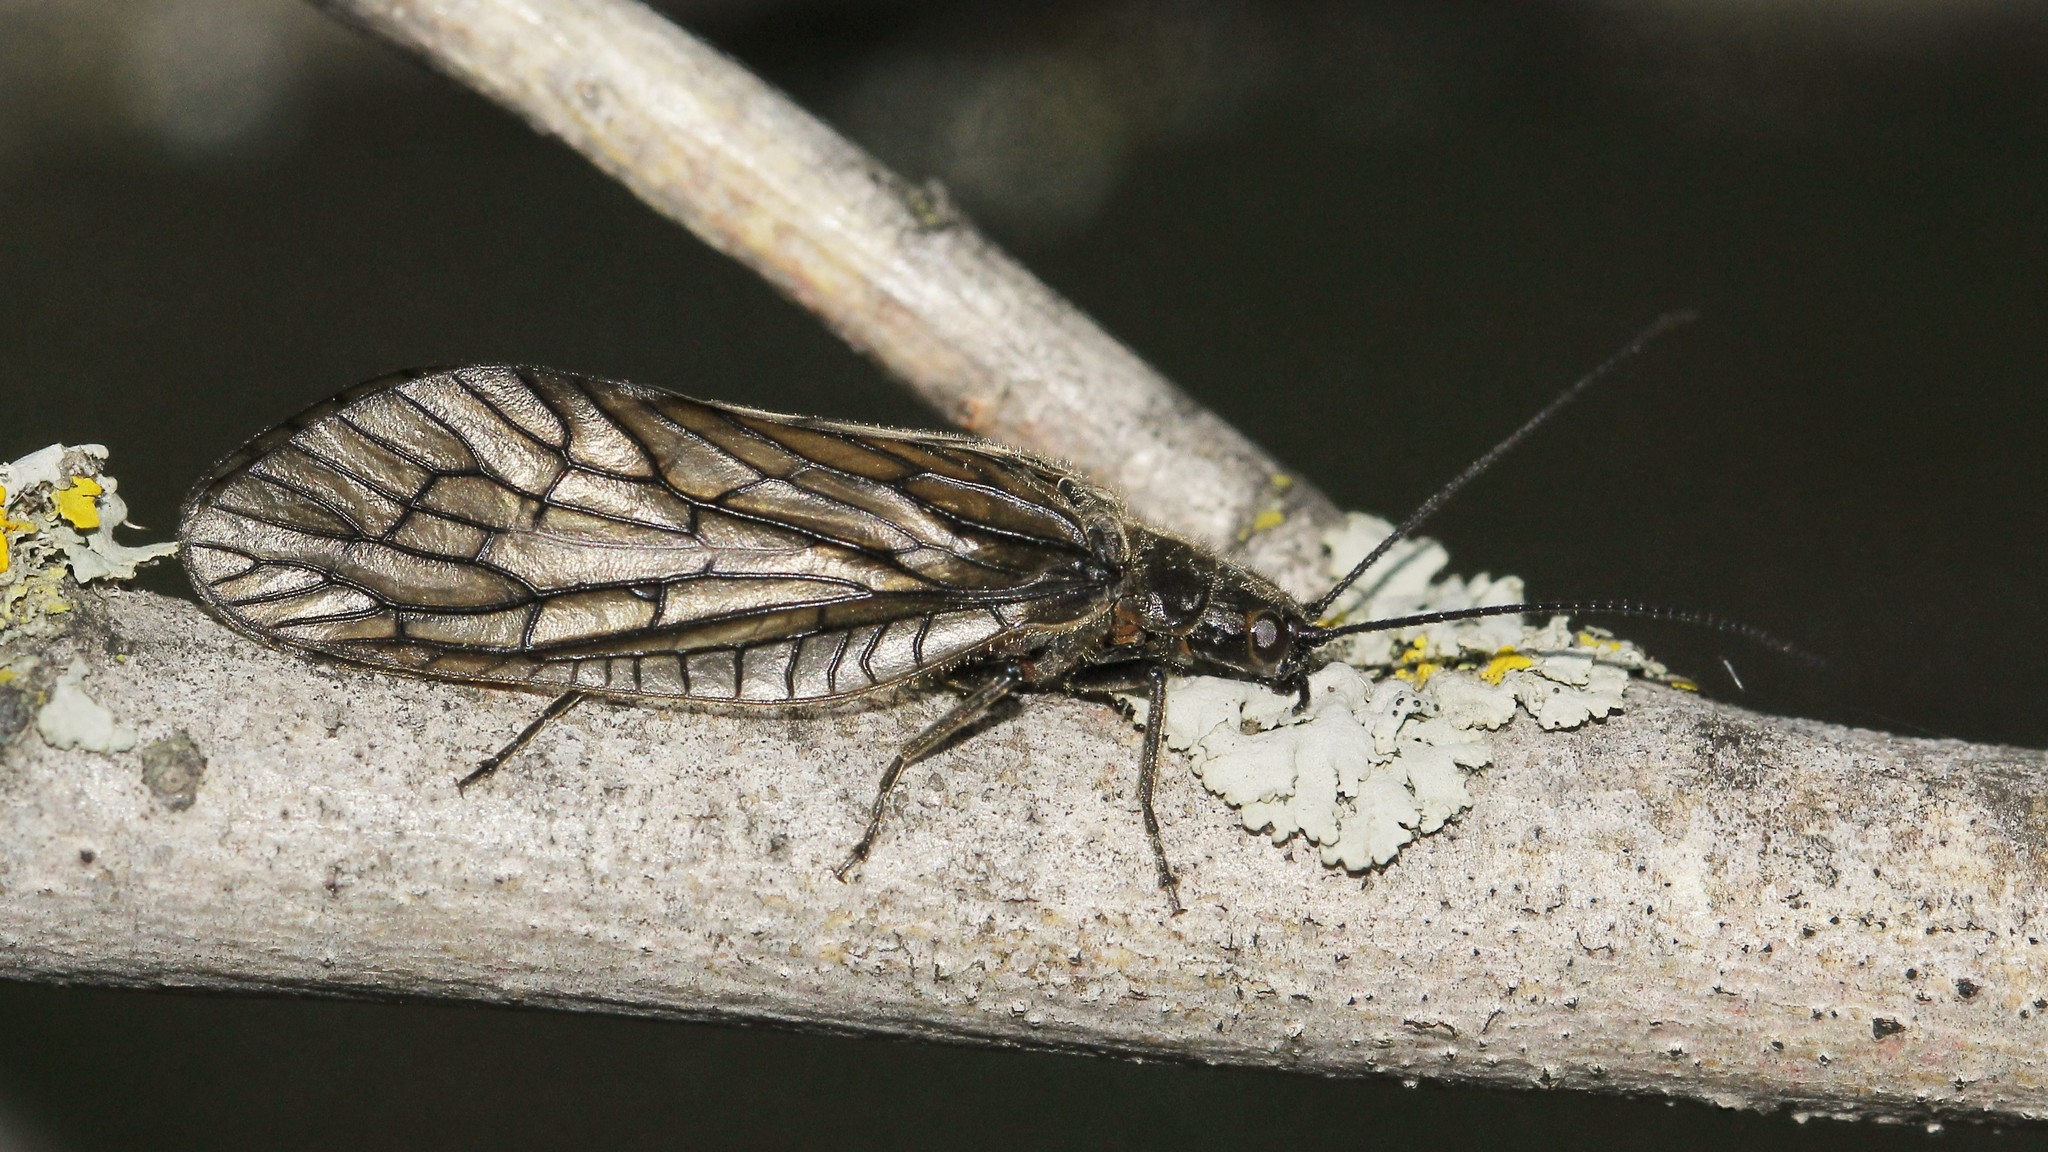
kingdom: Animalia
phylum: Arthropoda
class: Insecta
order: Megaloptera
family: Sialidae
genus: Sialis
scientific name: Sialis
